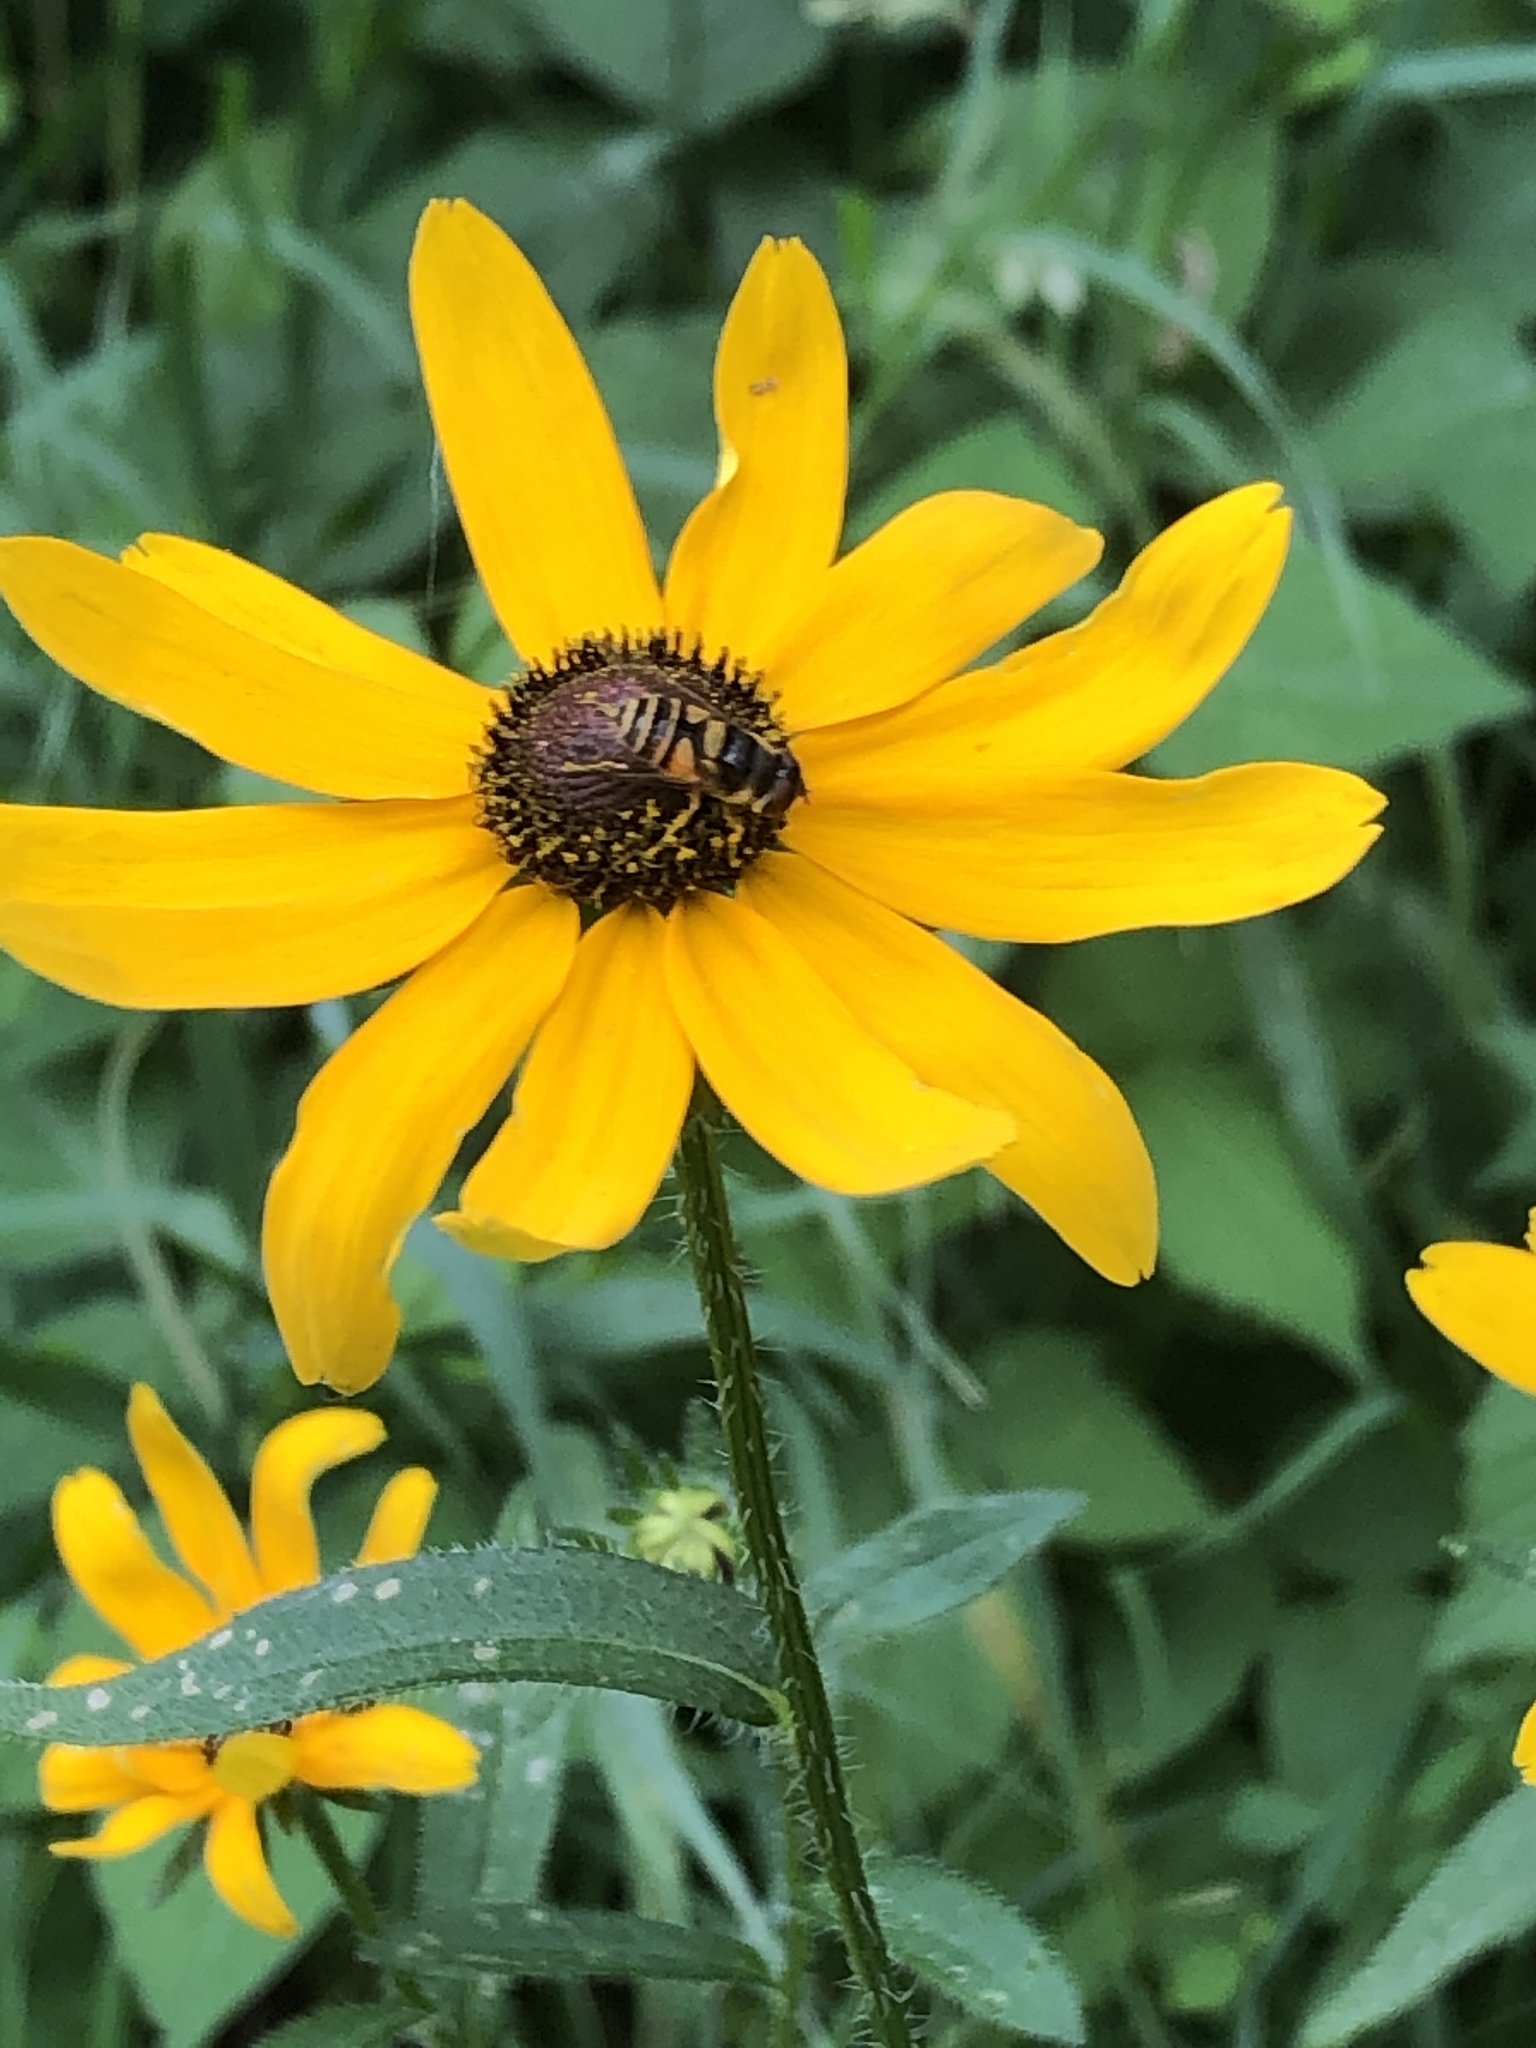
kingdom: Animalia
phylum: Arthropoda
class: Insecta
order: Diptera
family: Syrphidae
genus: Eristalis
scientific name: Eristalis transversa
